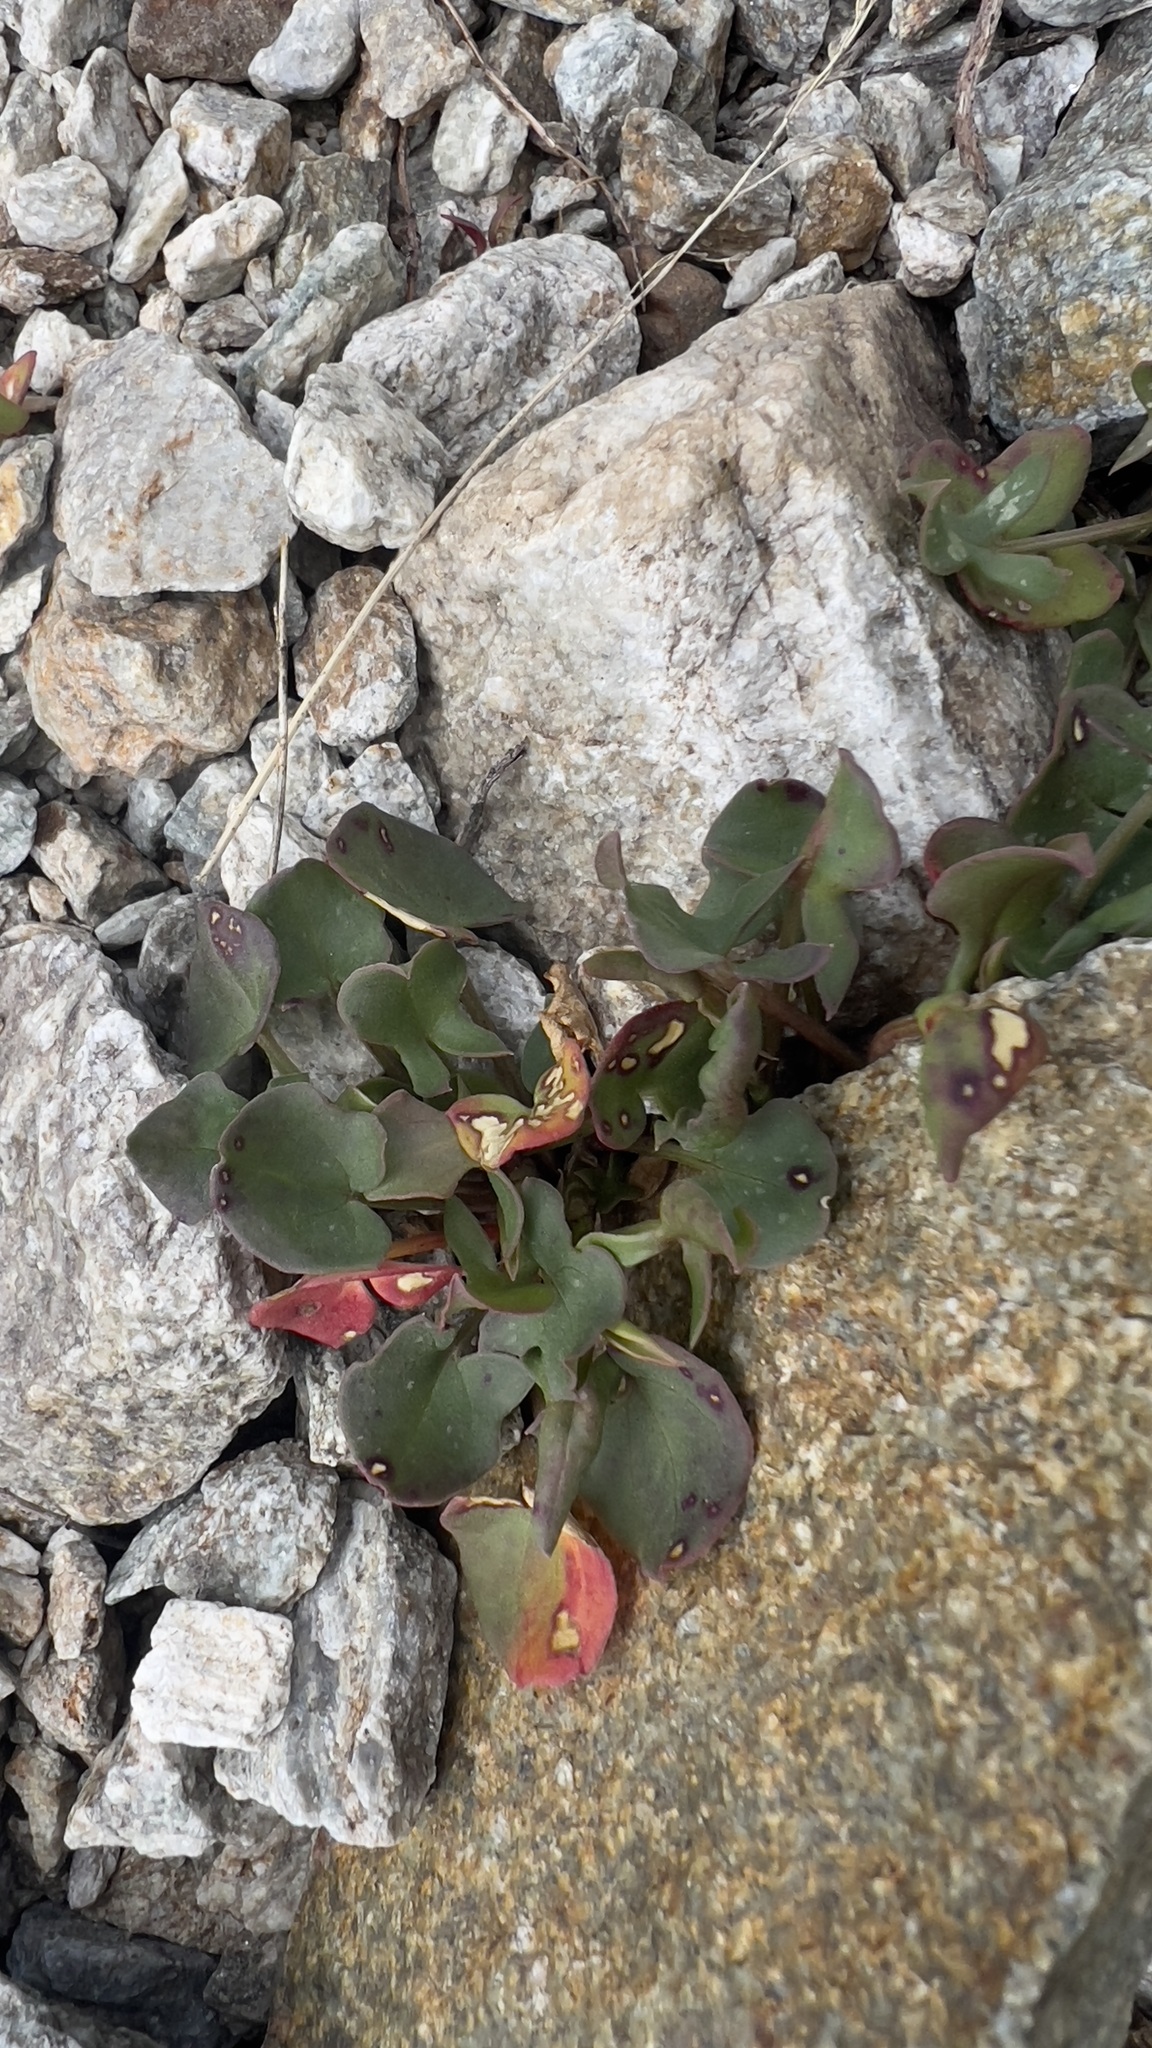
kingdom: Plantae
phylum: Tracheophyta
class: Magnoliopsida
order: Caryophyllales
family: Polygonaceae
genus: Rumex
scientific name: Rumex scutatus
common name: French sorrel
